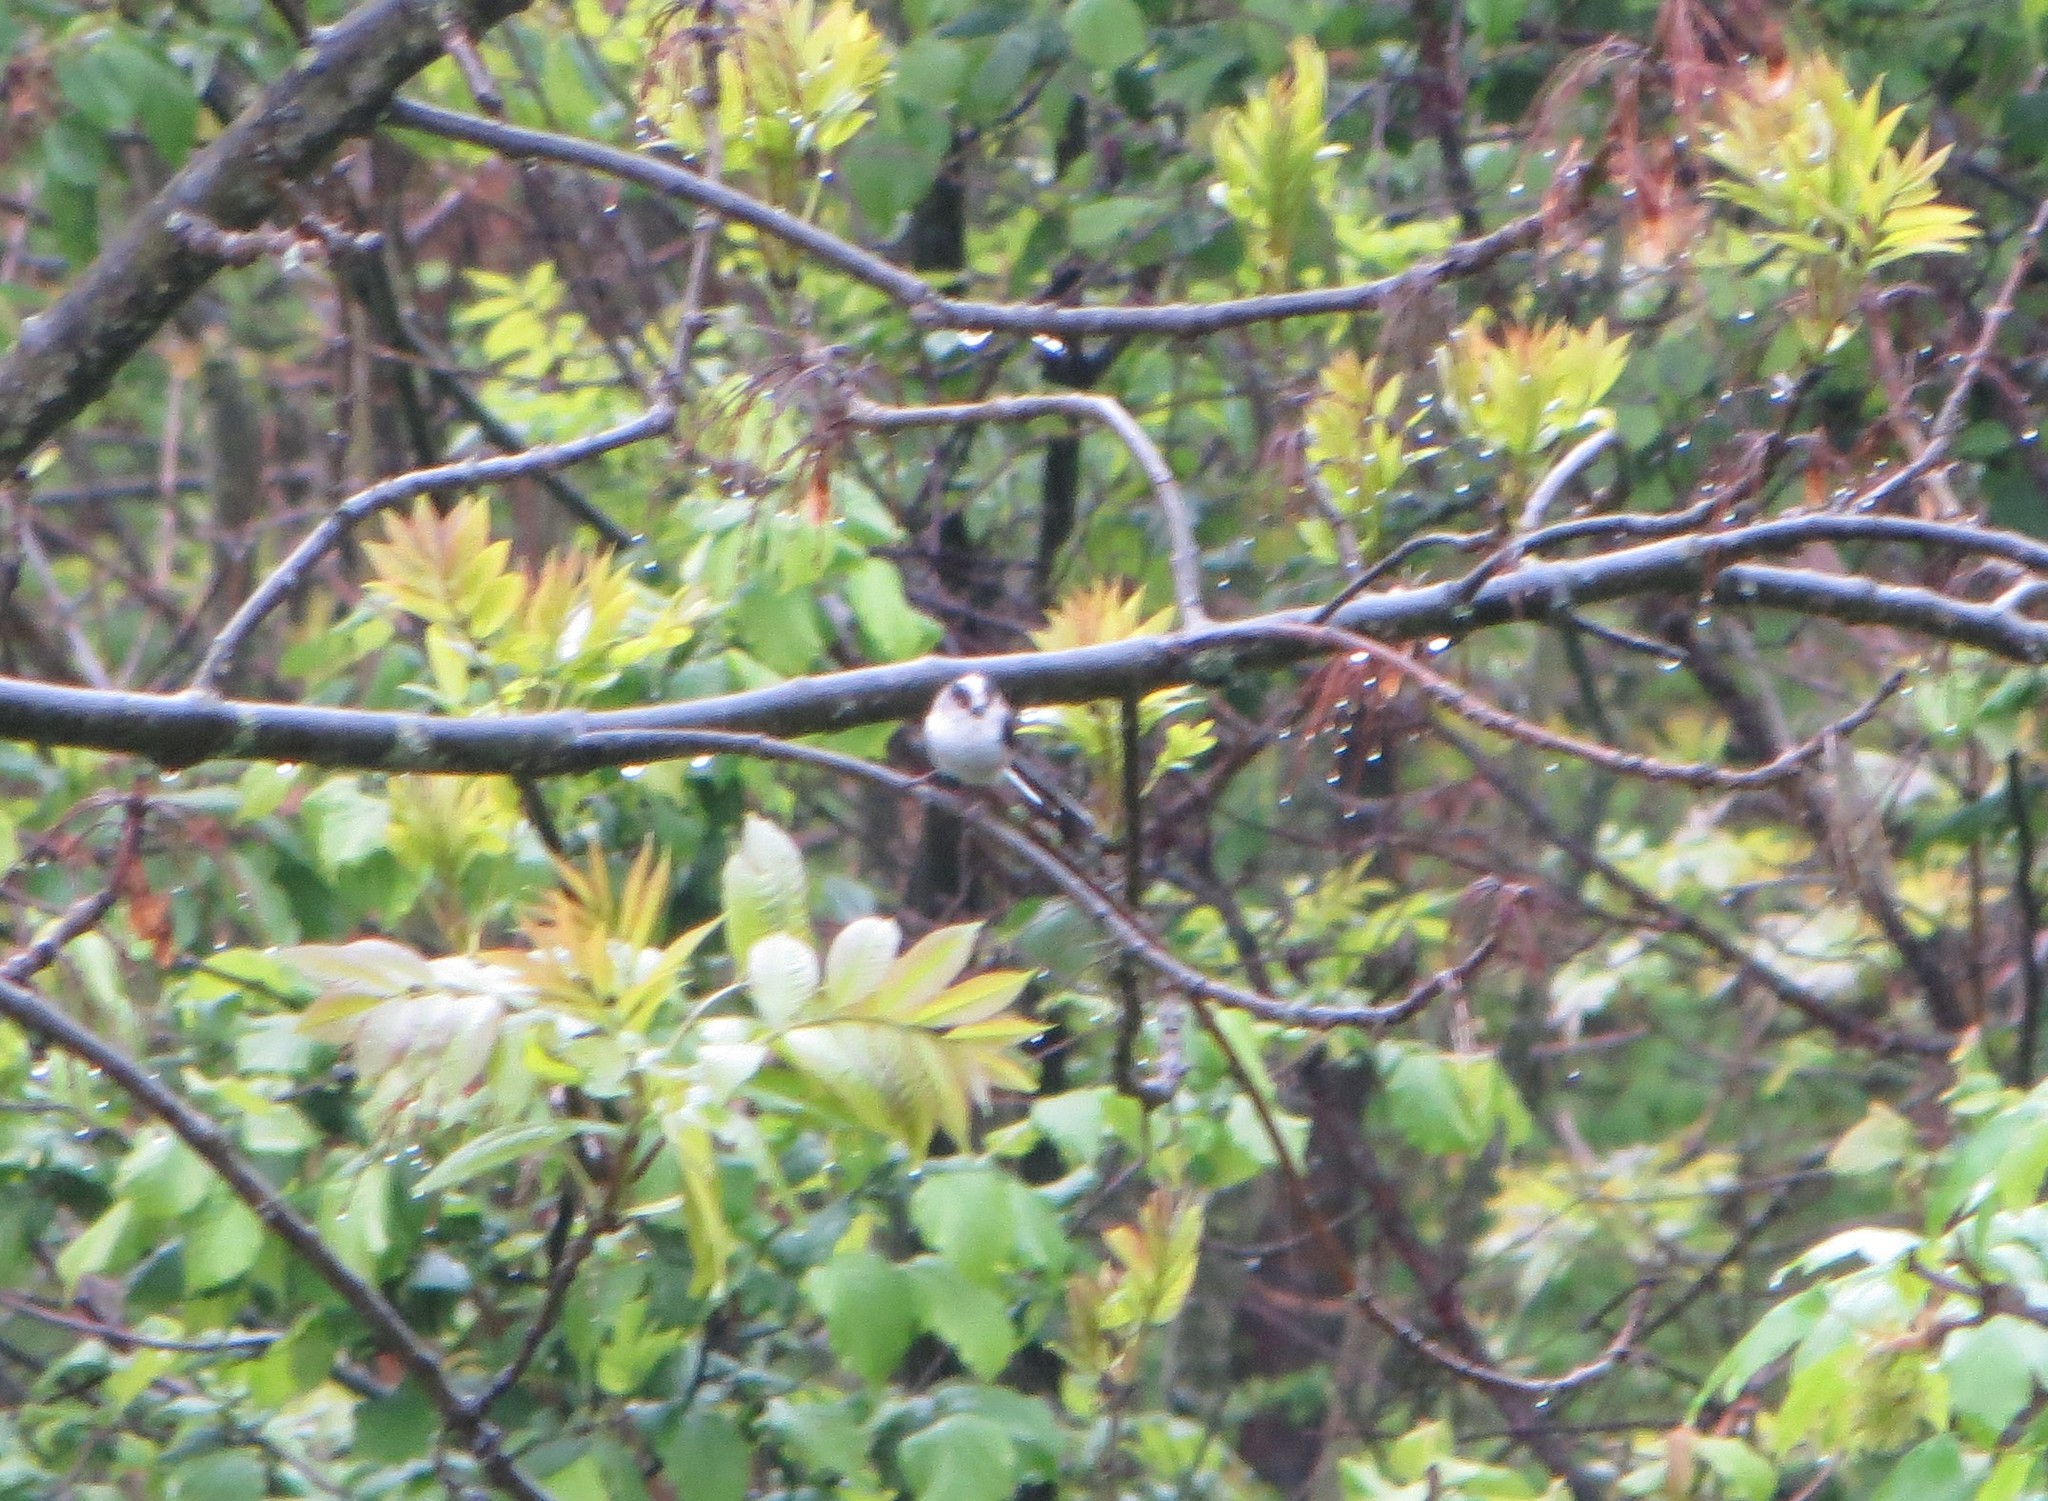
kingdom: Animalia
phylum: Chordata
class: Aves
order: Passeriformes
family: Aegithalidae
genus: Aegithalos
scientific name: Aegithalos caudatus
